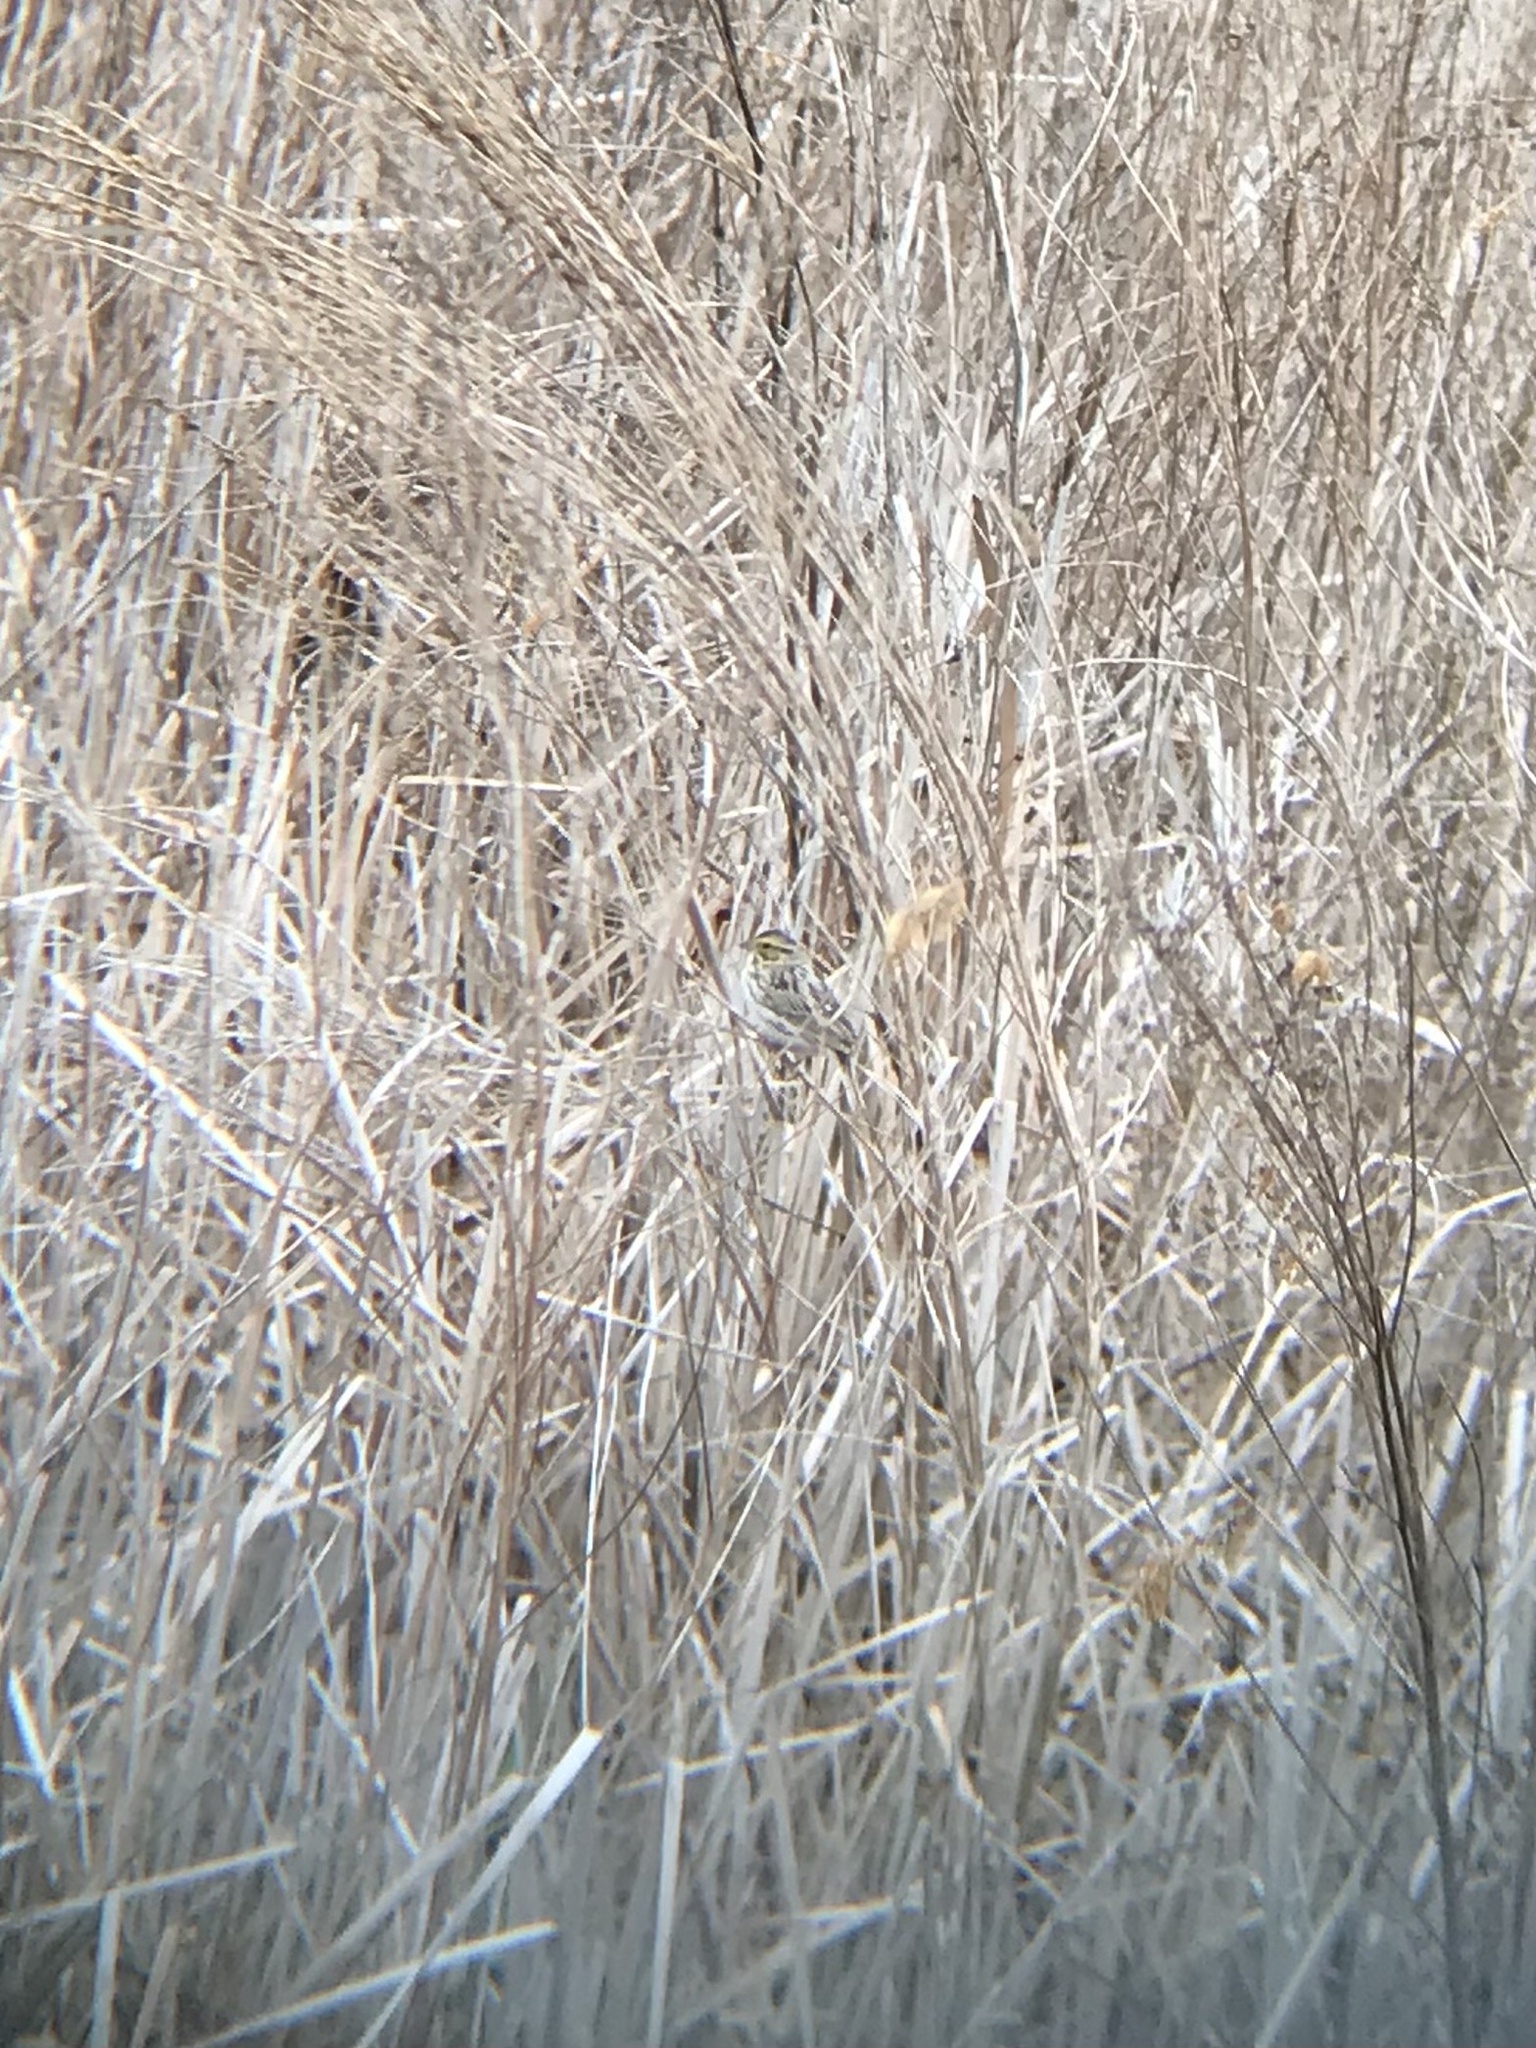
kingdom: Animalia
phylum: Chordata
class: Aves
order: Passeriformes
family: Passerellidae
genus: Passerculus
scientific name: Passerculus sandwichensis
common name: Savannah sparrow
